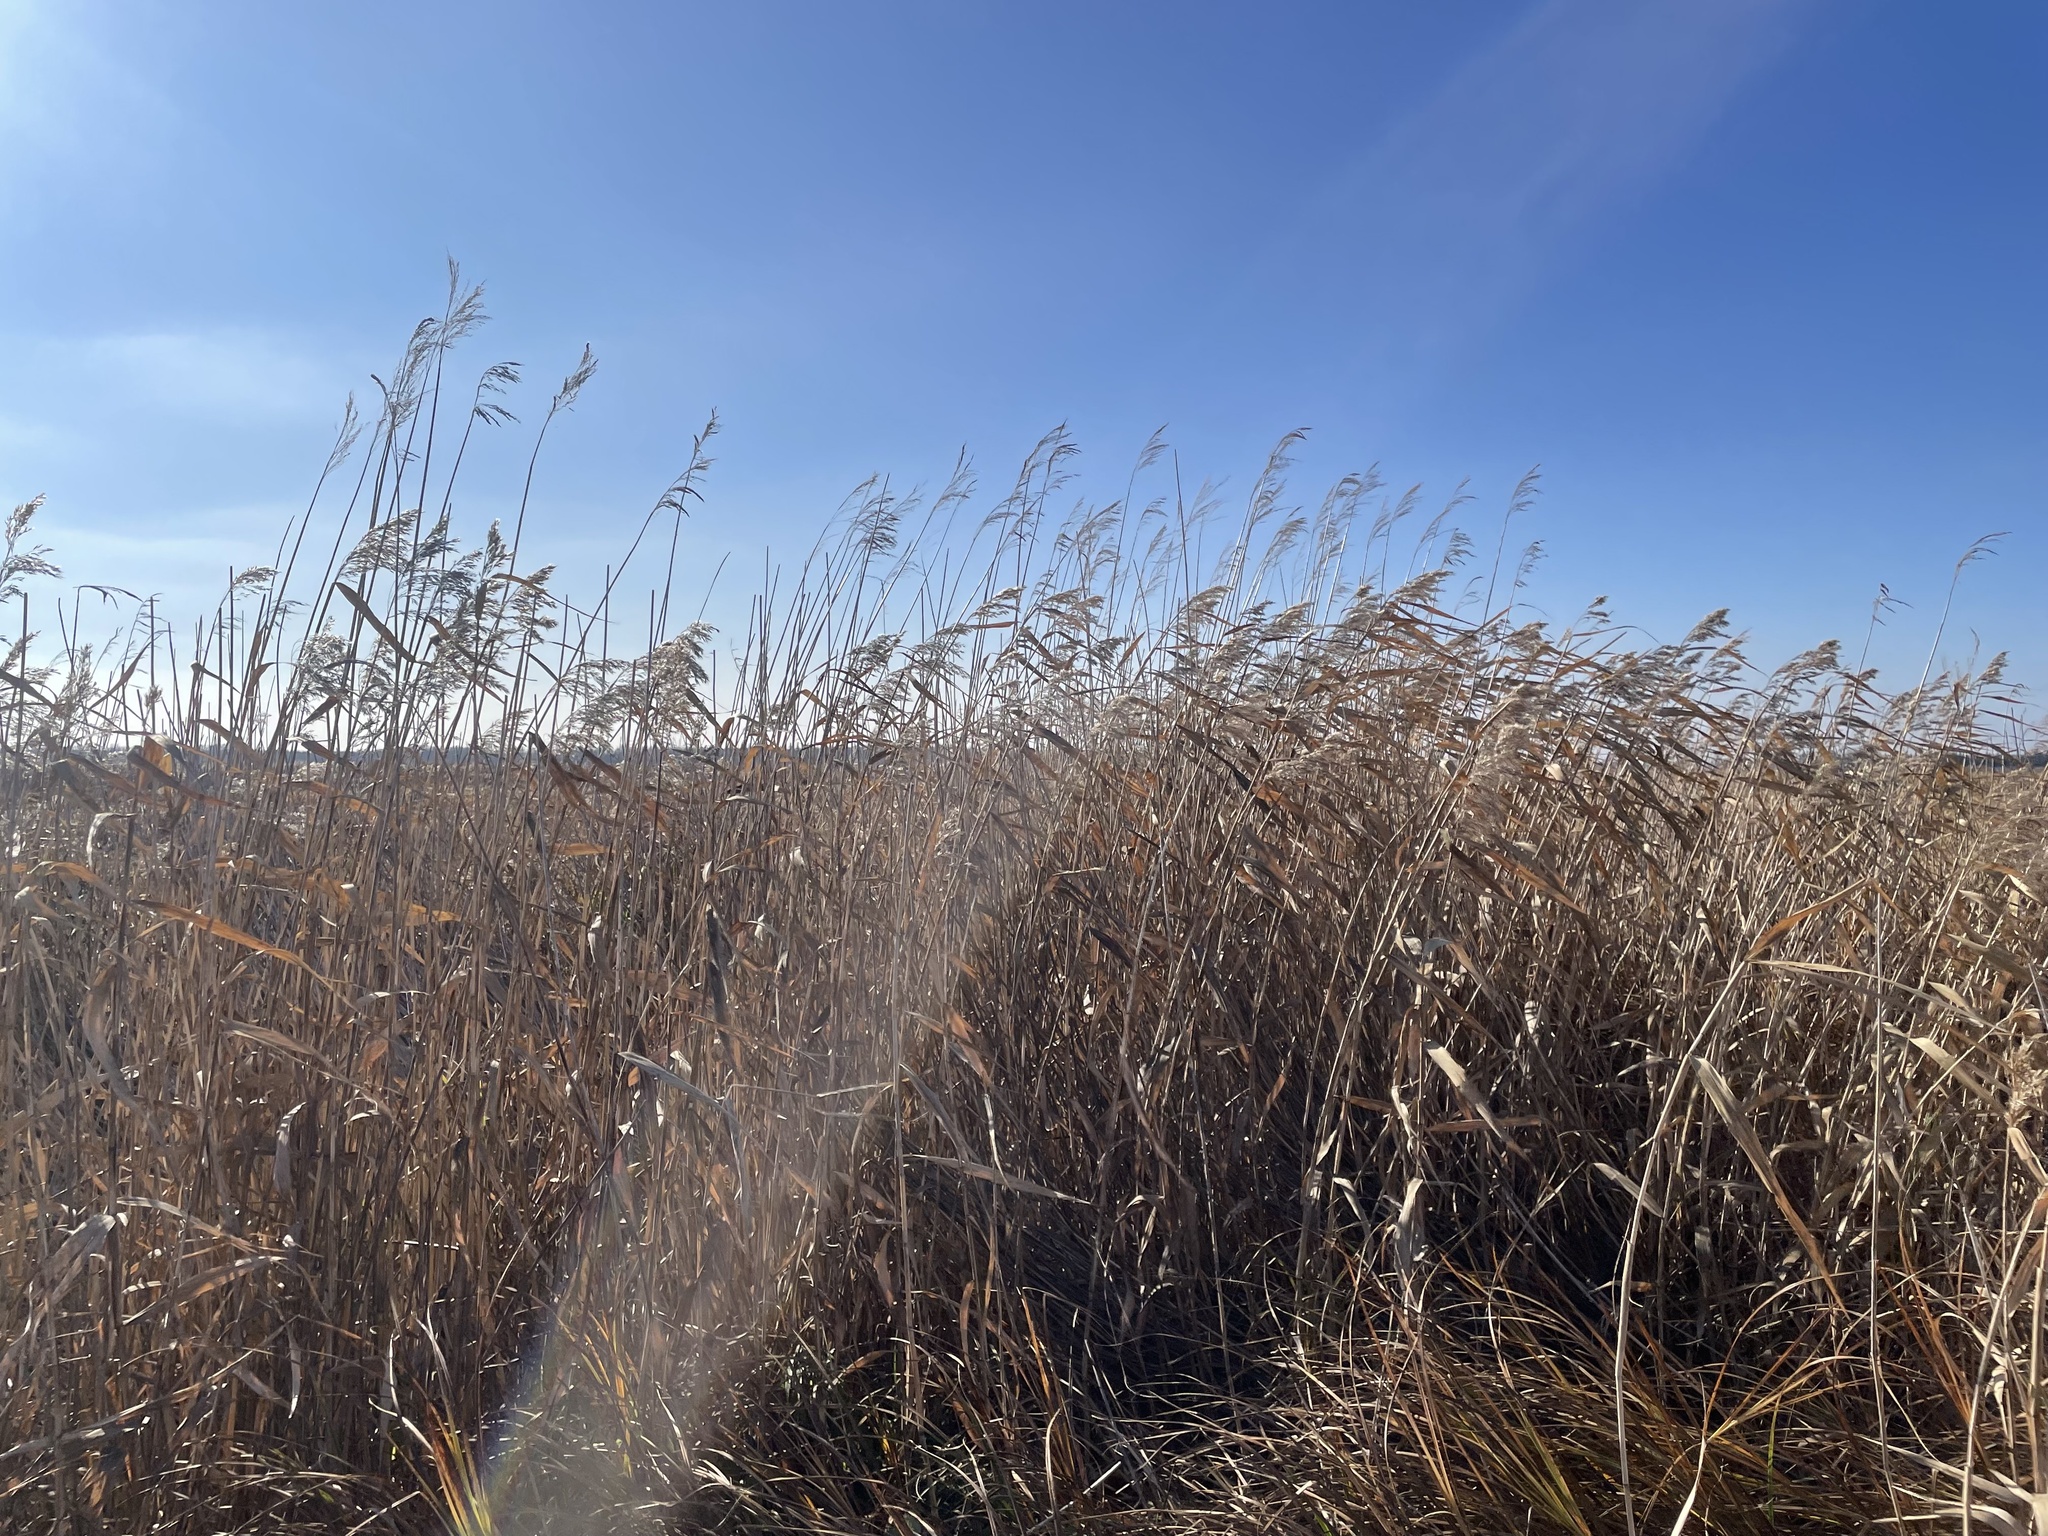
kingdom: Plantae
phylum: Tracheophyta
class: Liliopsida
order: Poales
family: Poaceae
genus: Phragmites
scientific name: Phragmites australis
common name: Common reed
